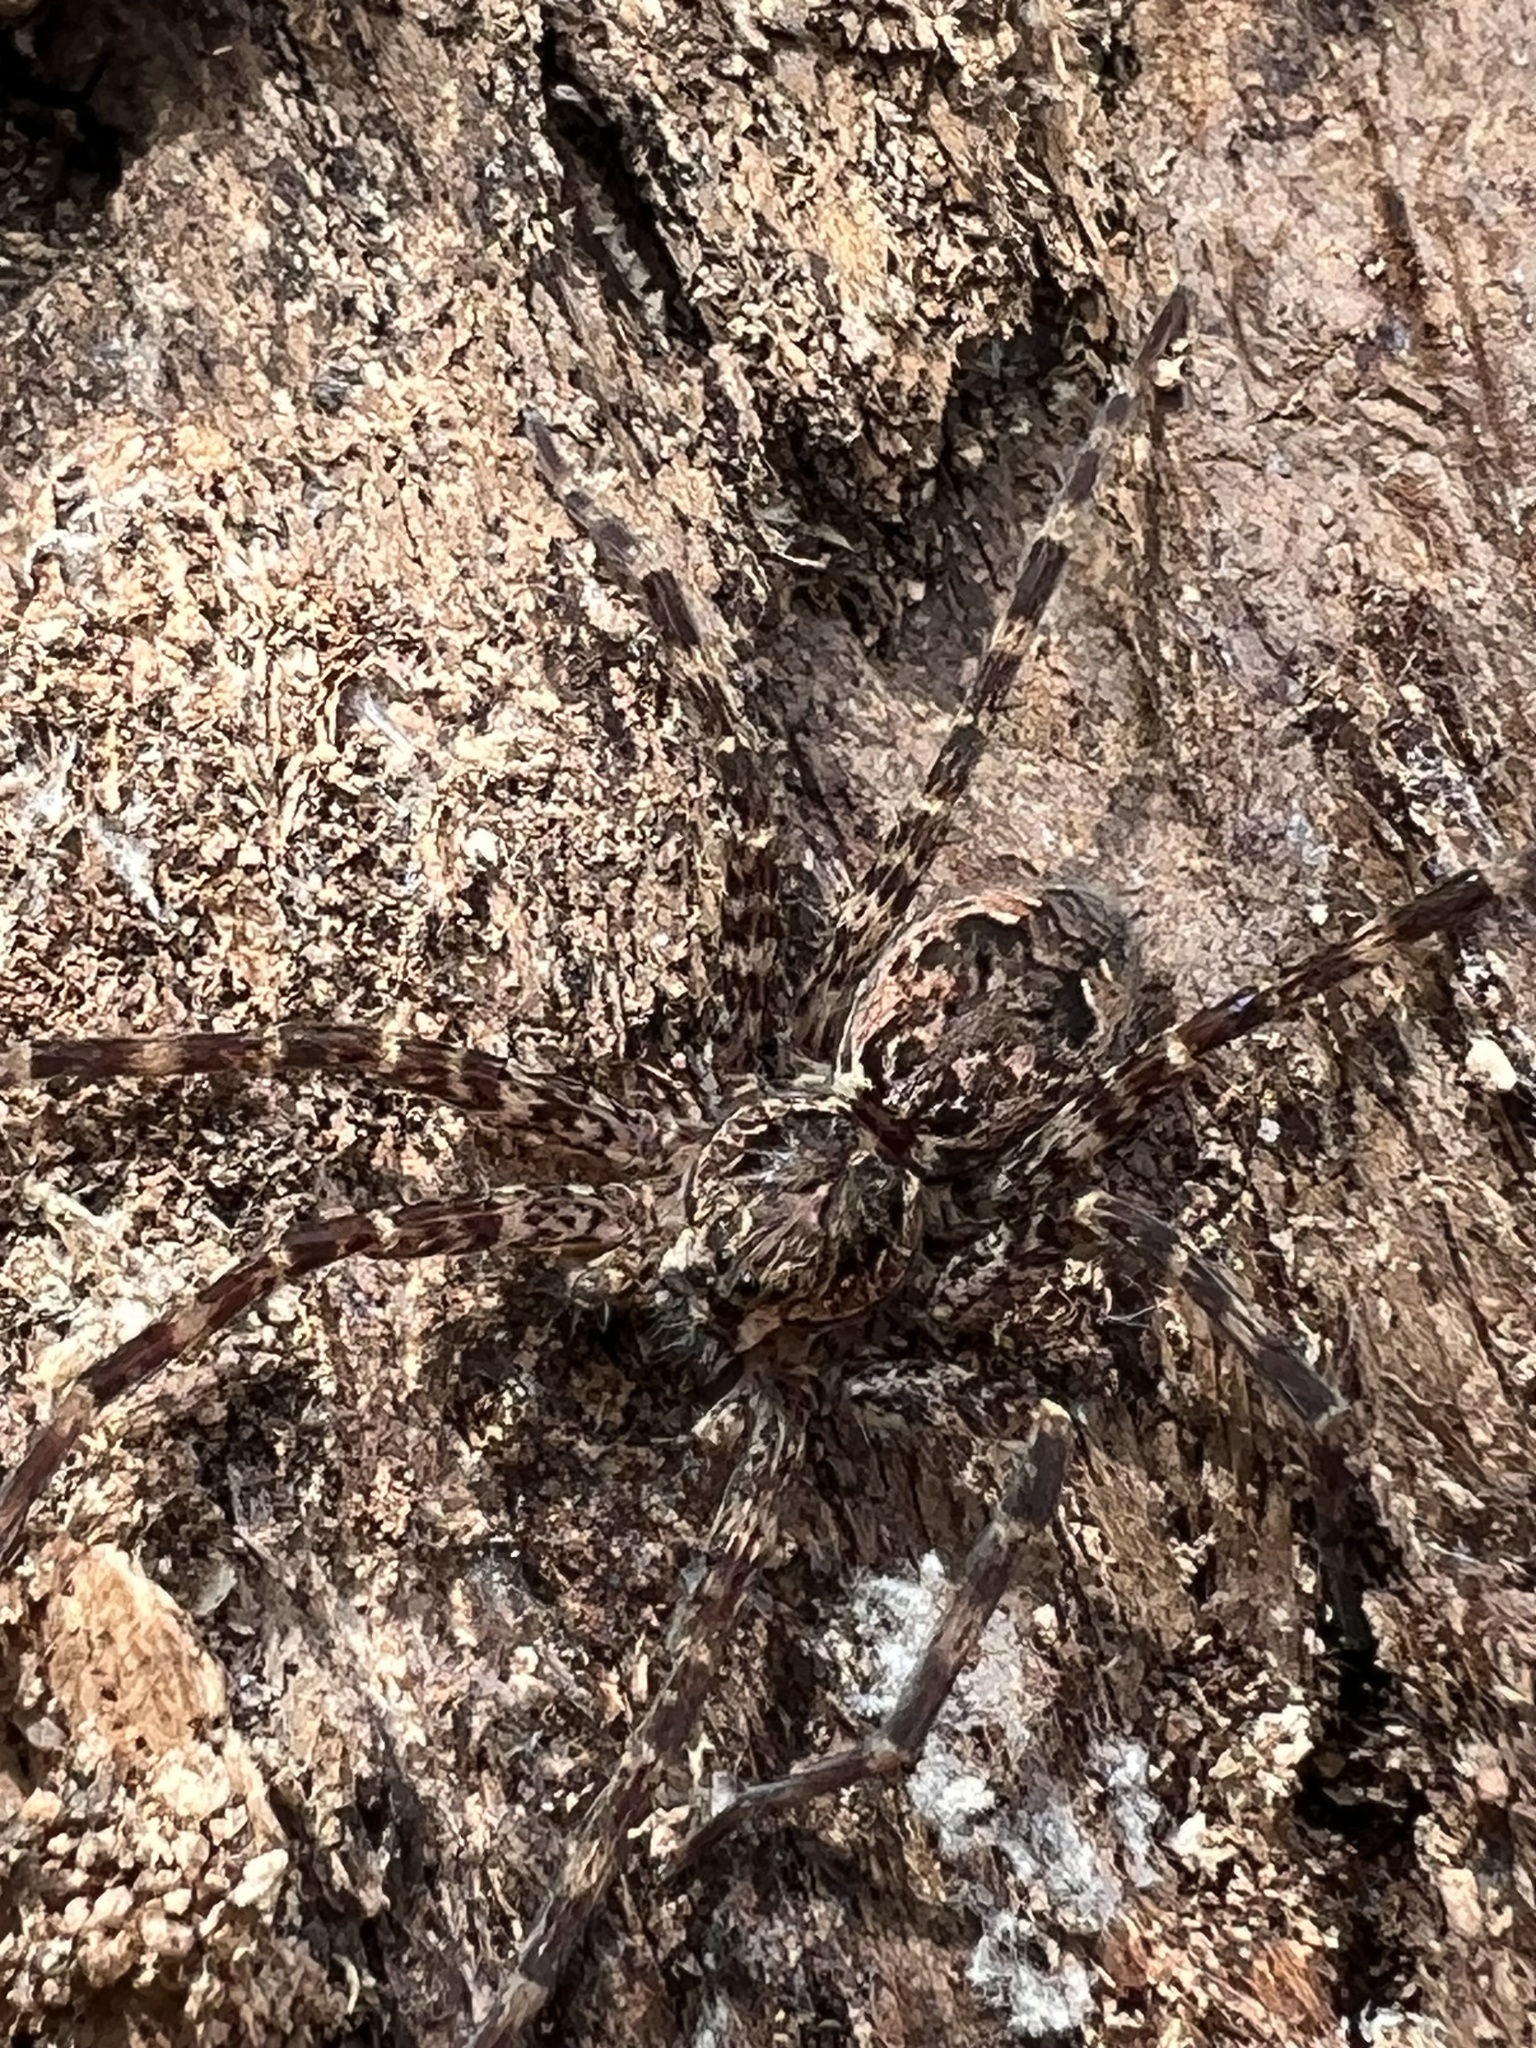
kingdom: Animalia
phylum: Arthropoda
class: Arachnida
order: Araneae
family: Pisauridae
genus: Dolomedes
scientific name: Dolomedes tenebrosus
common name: Dark fishing spider
